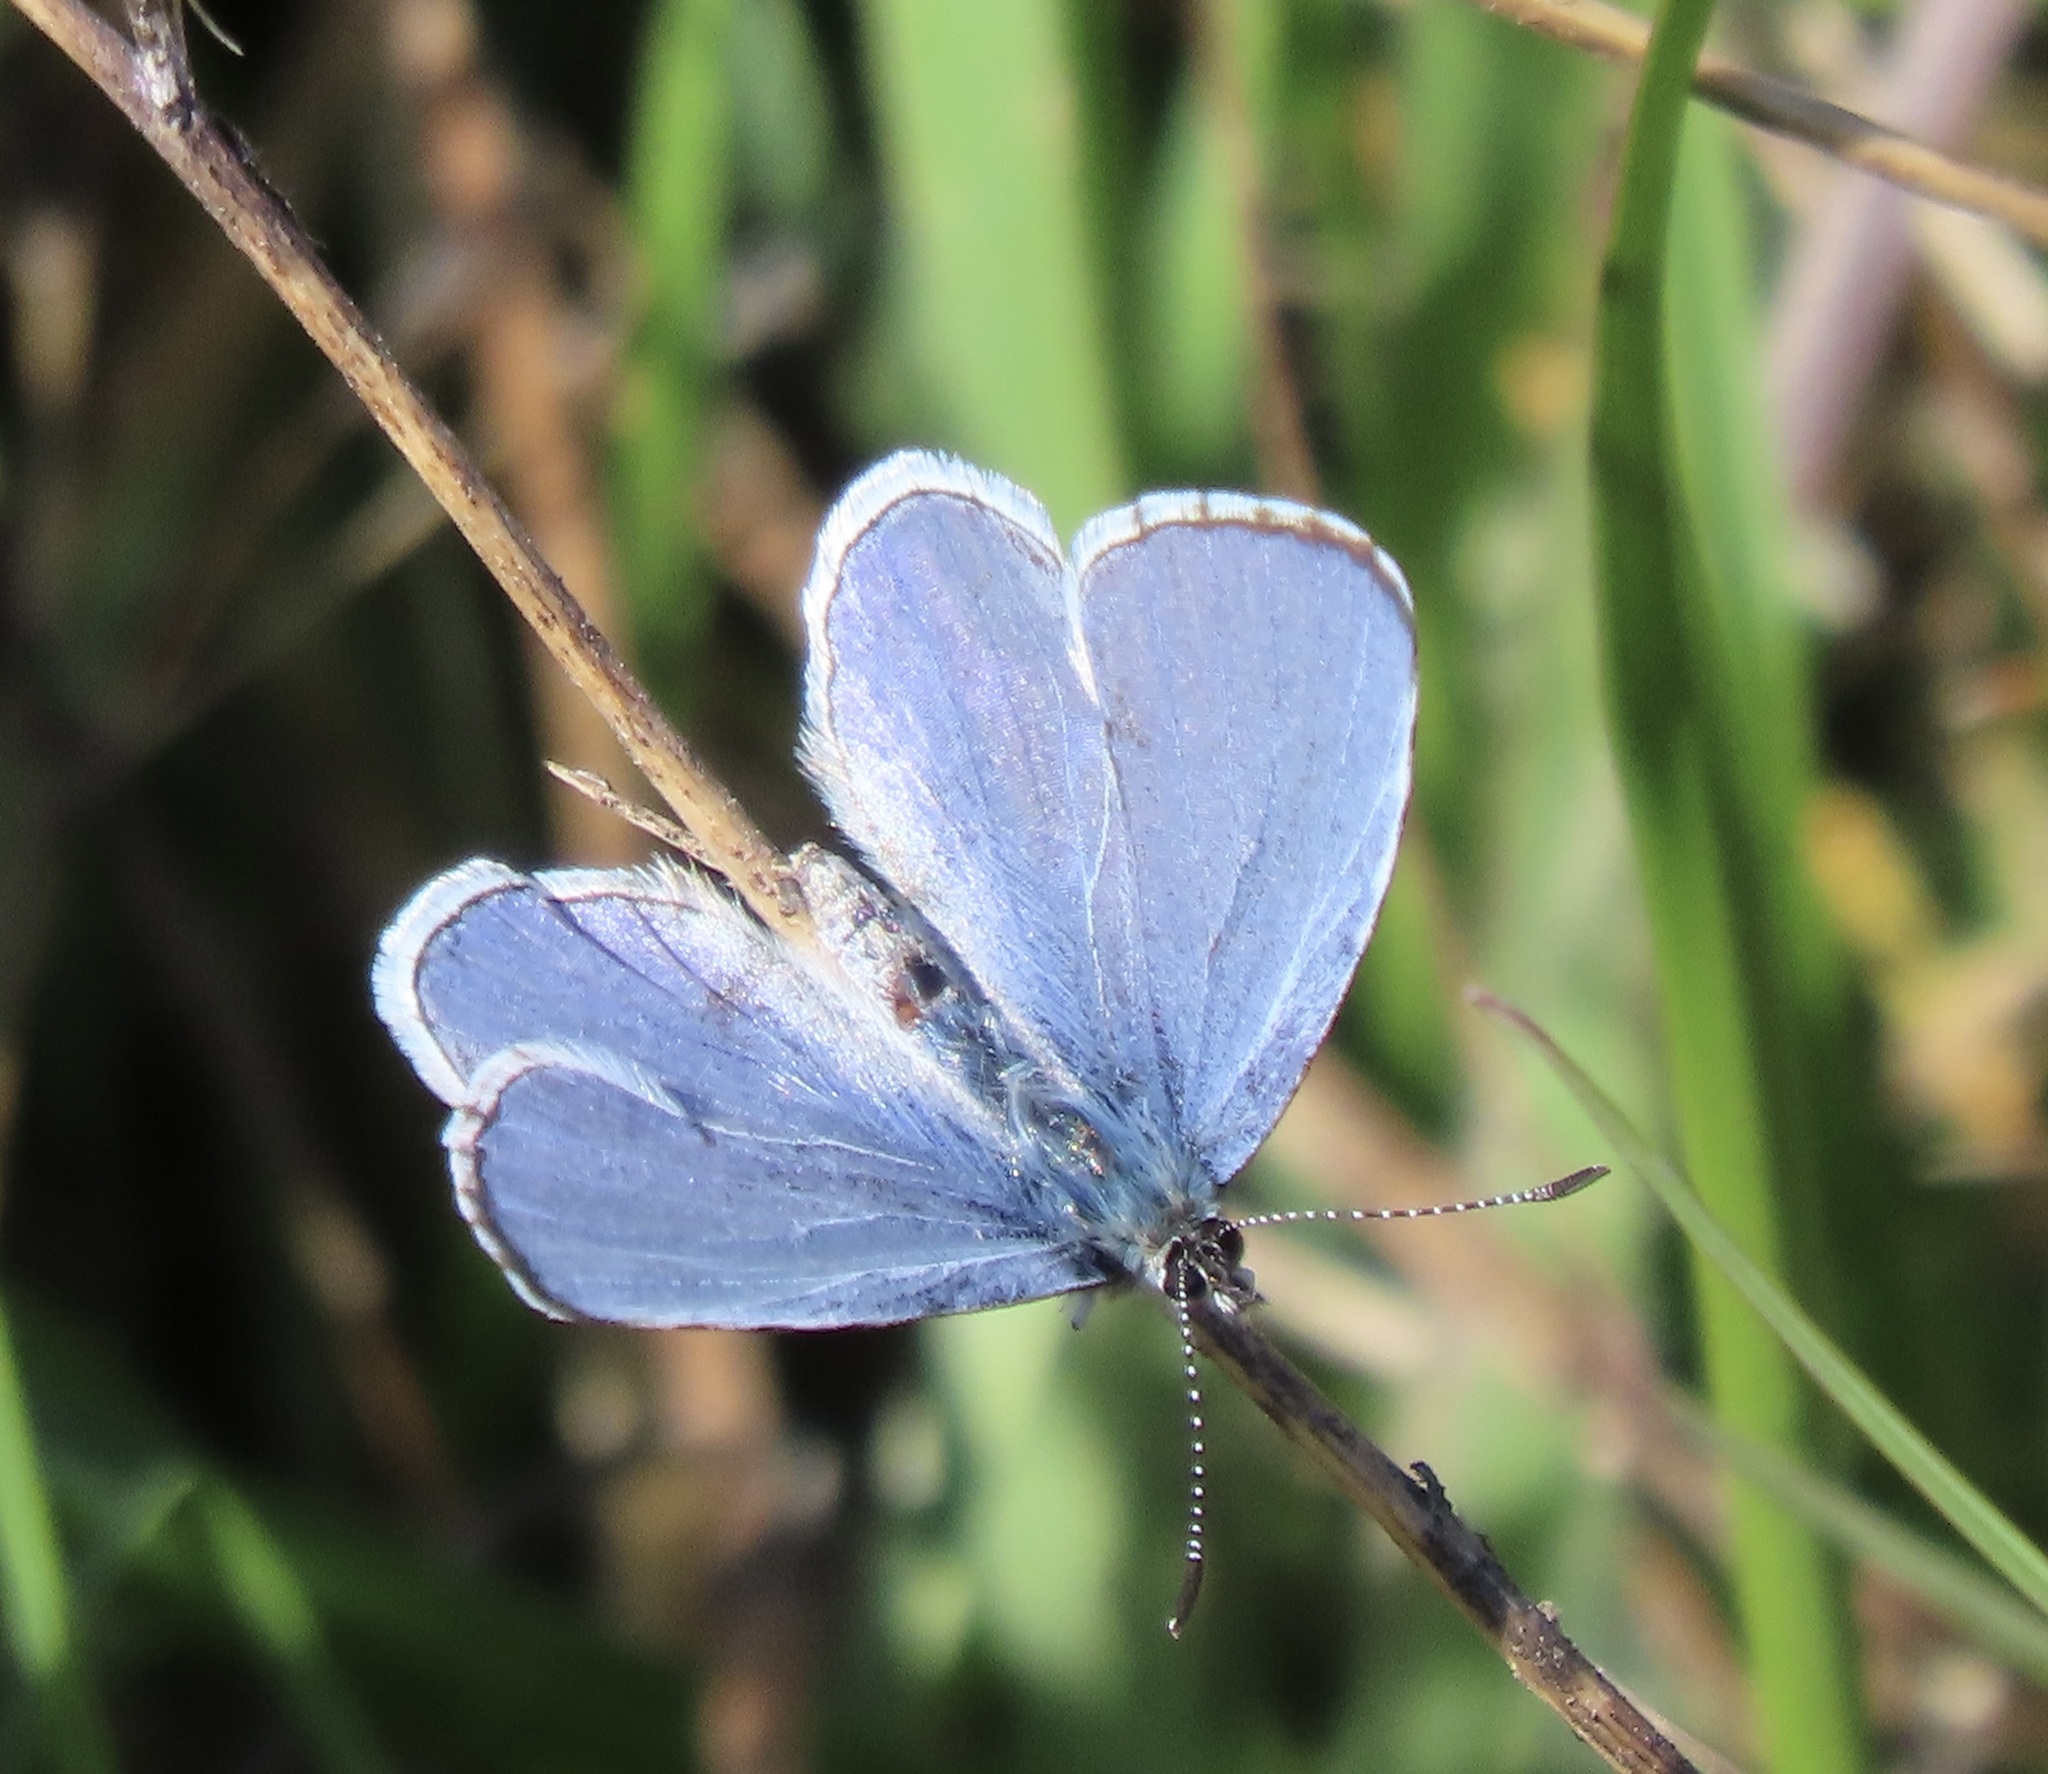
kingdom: Animalia
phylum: Arthropoda
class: Insecta
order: Lepidoptera
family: Lycaenidae
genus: Celastrina
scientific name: Celastrina ladon
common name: Spring azure
